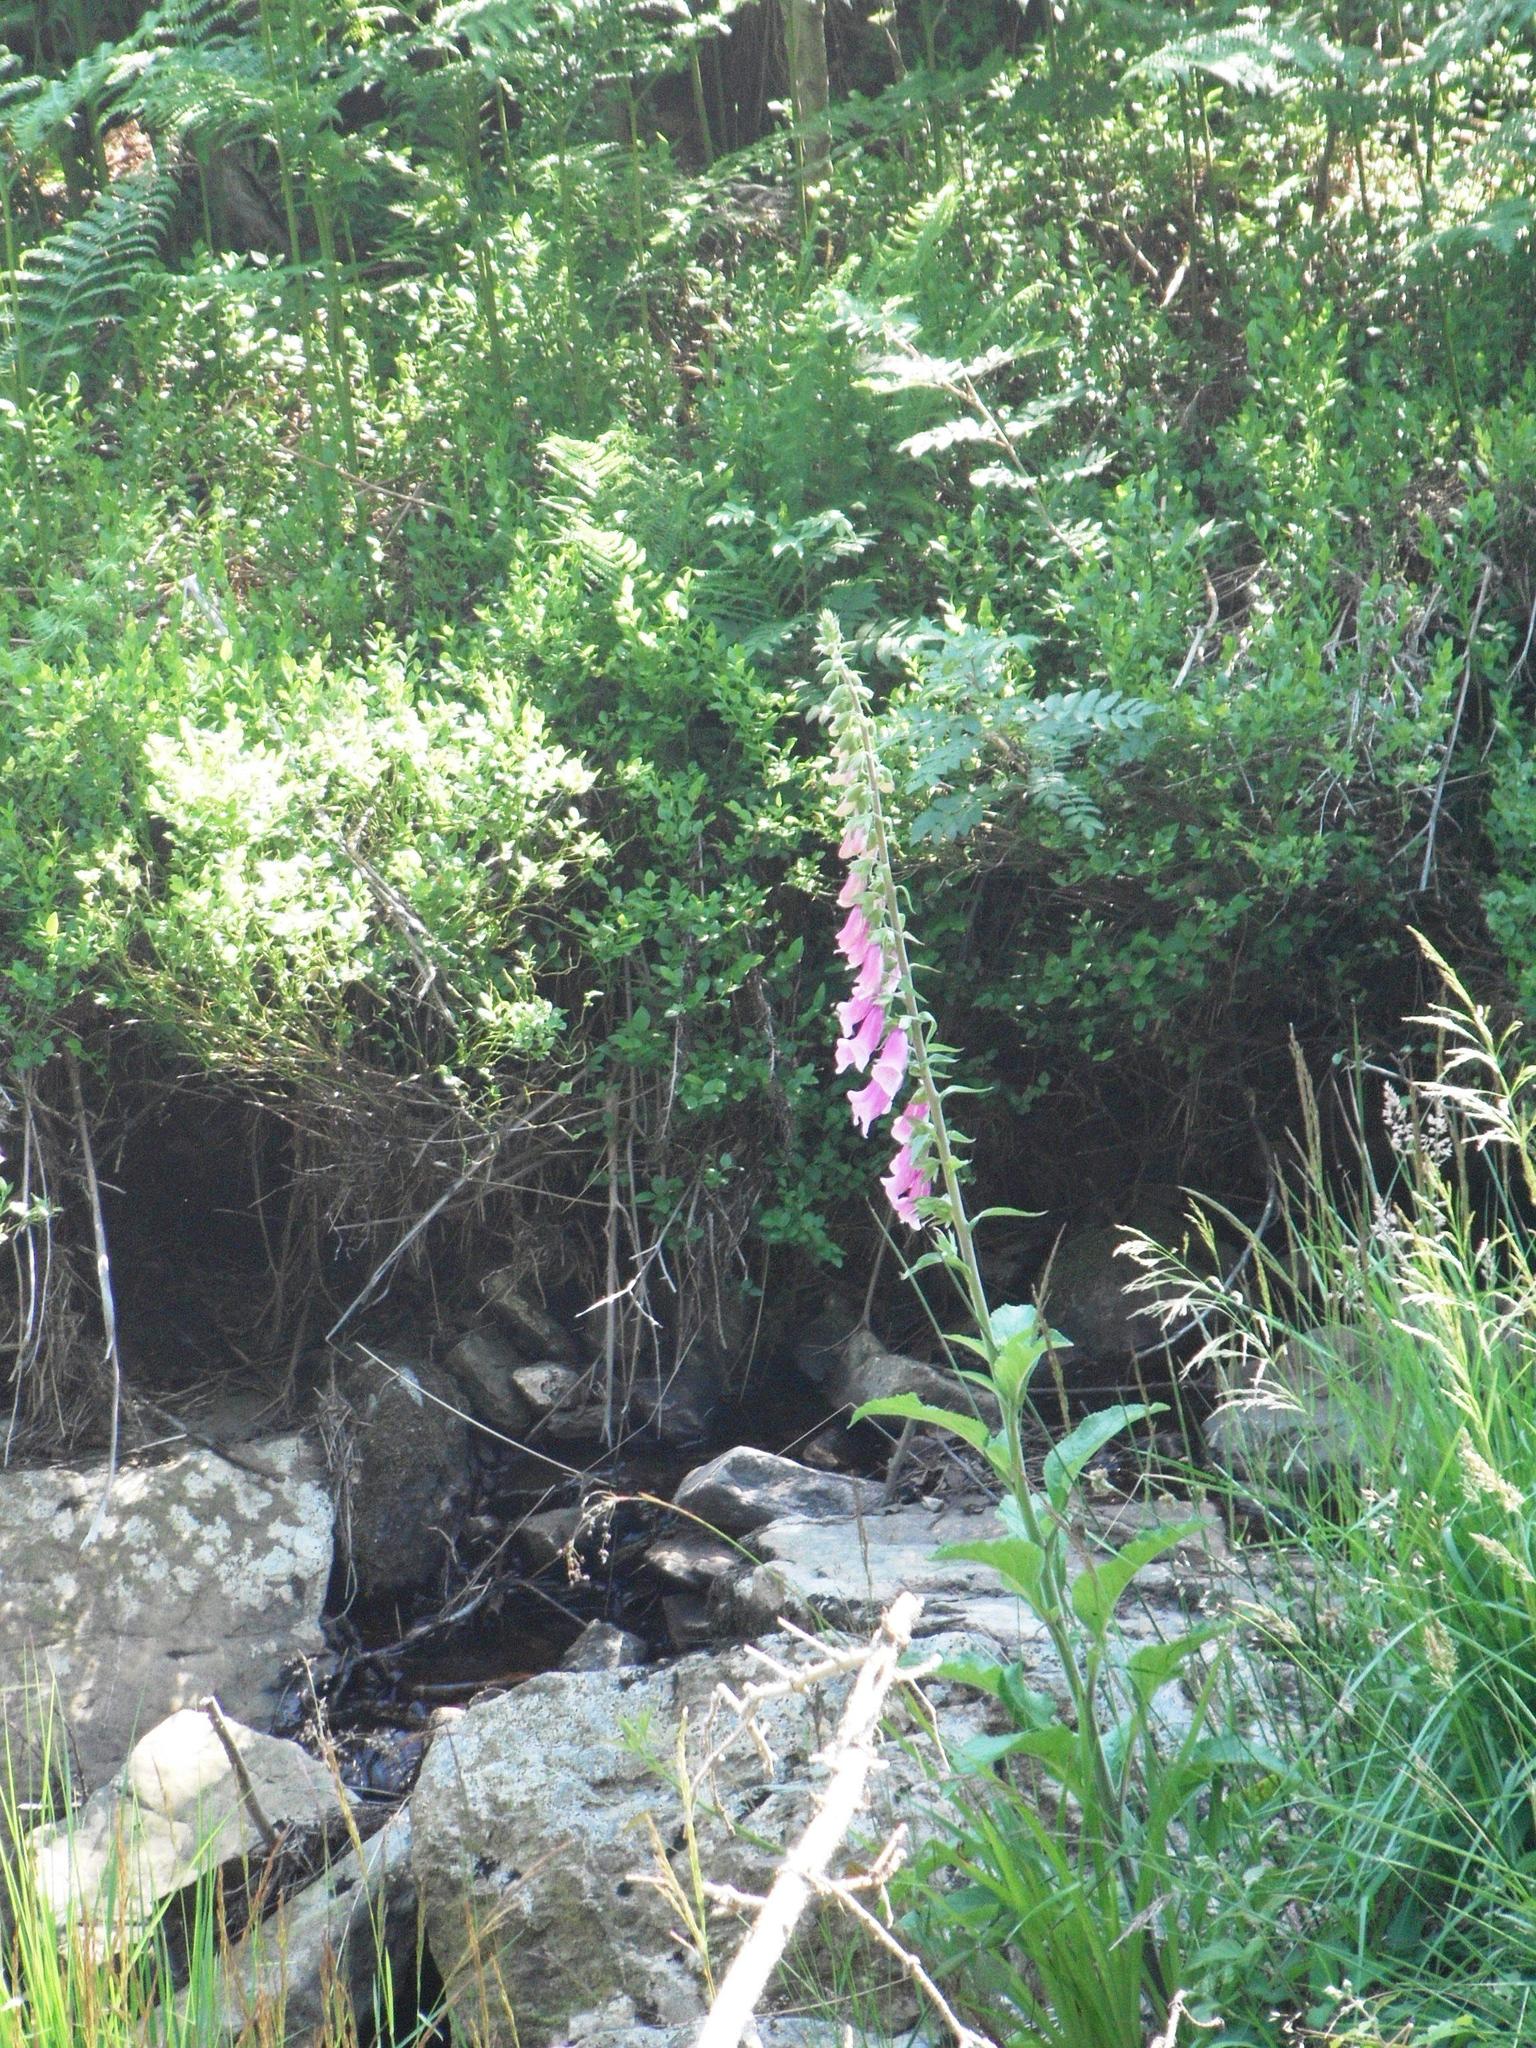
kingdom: Plantae
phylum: Tracheophyta
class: Magnoliopsida
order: Lamiales
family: Plantaginaceae
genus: Digitalis
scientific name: Digitalis purpurea
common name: Foxglove
